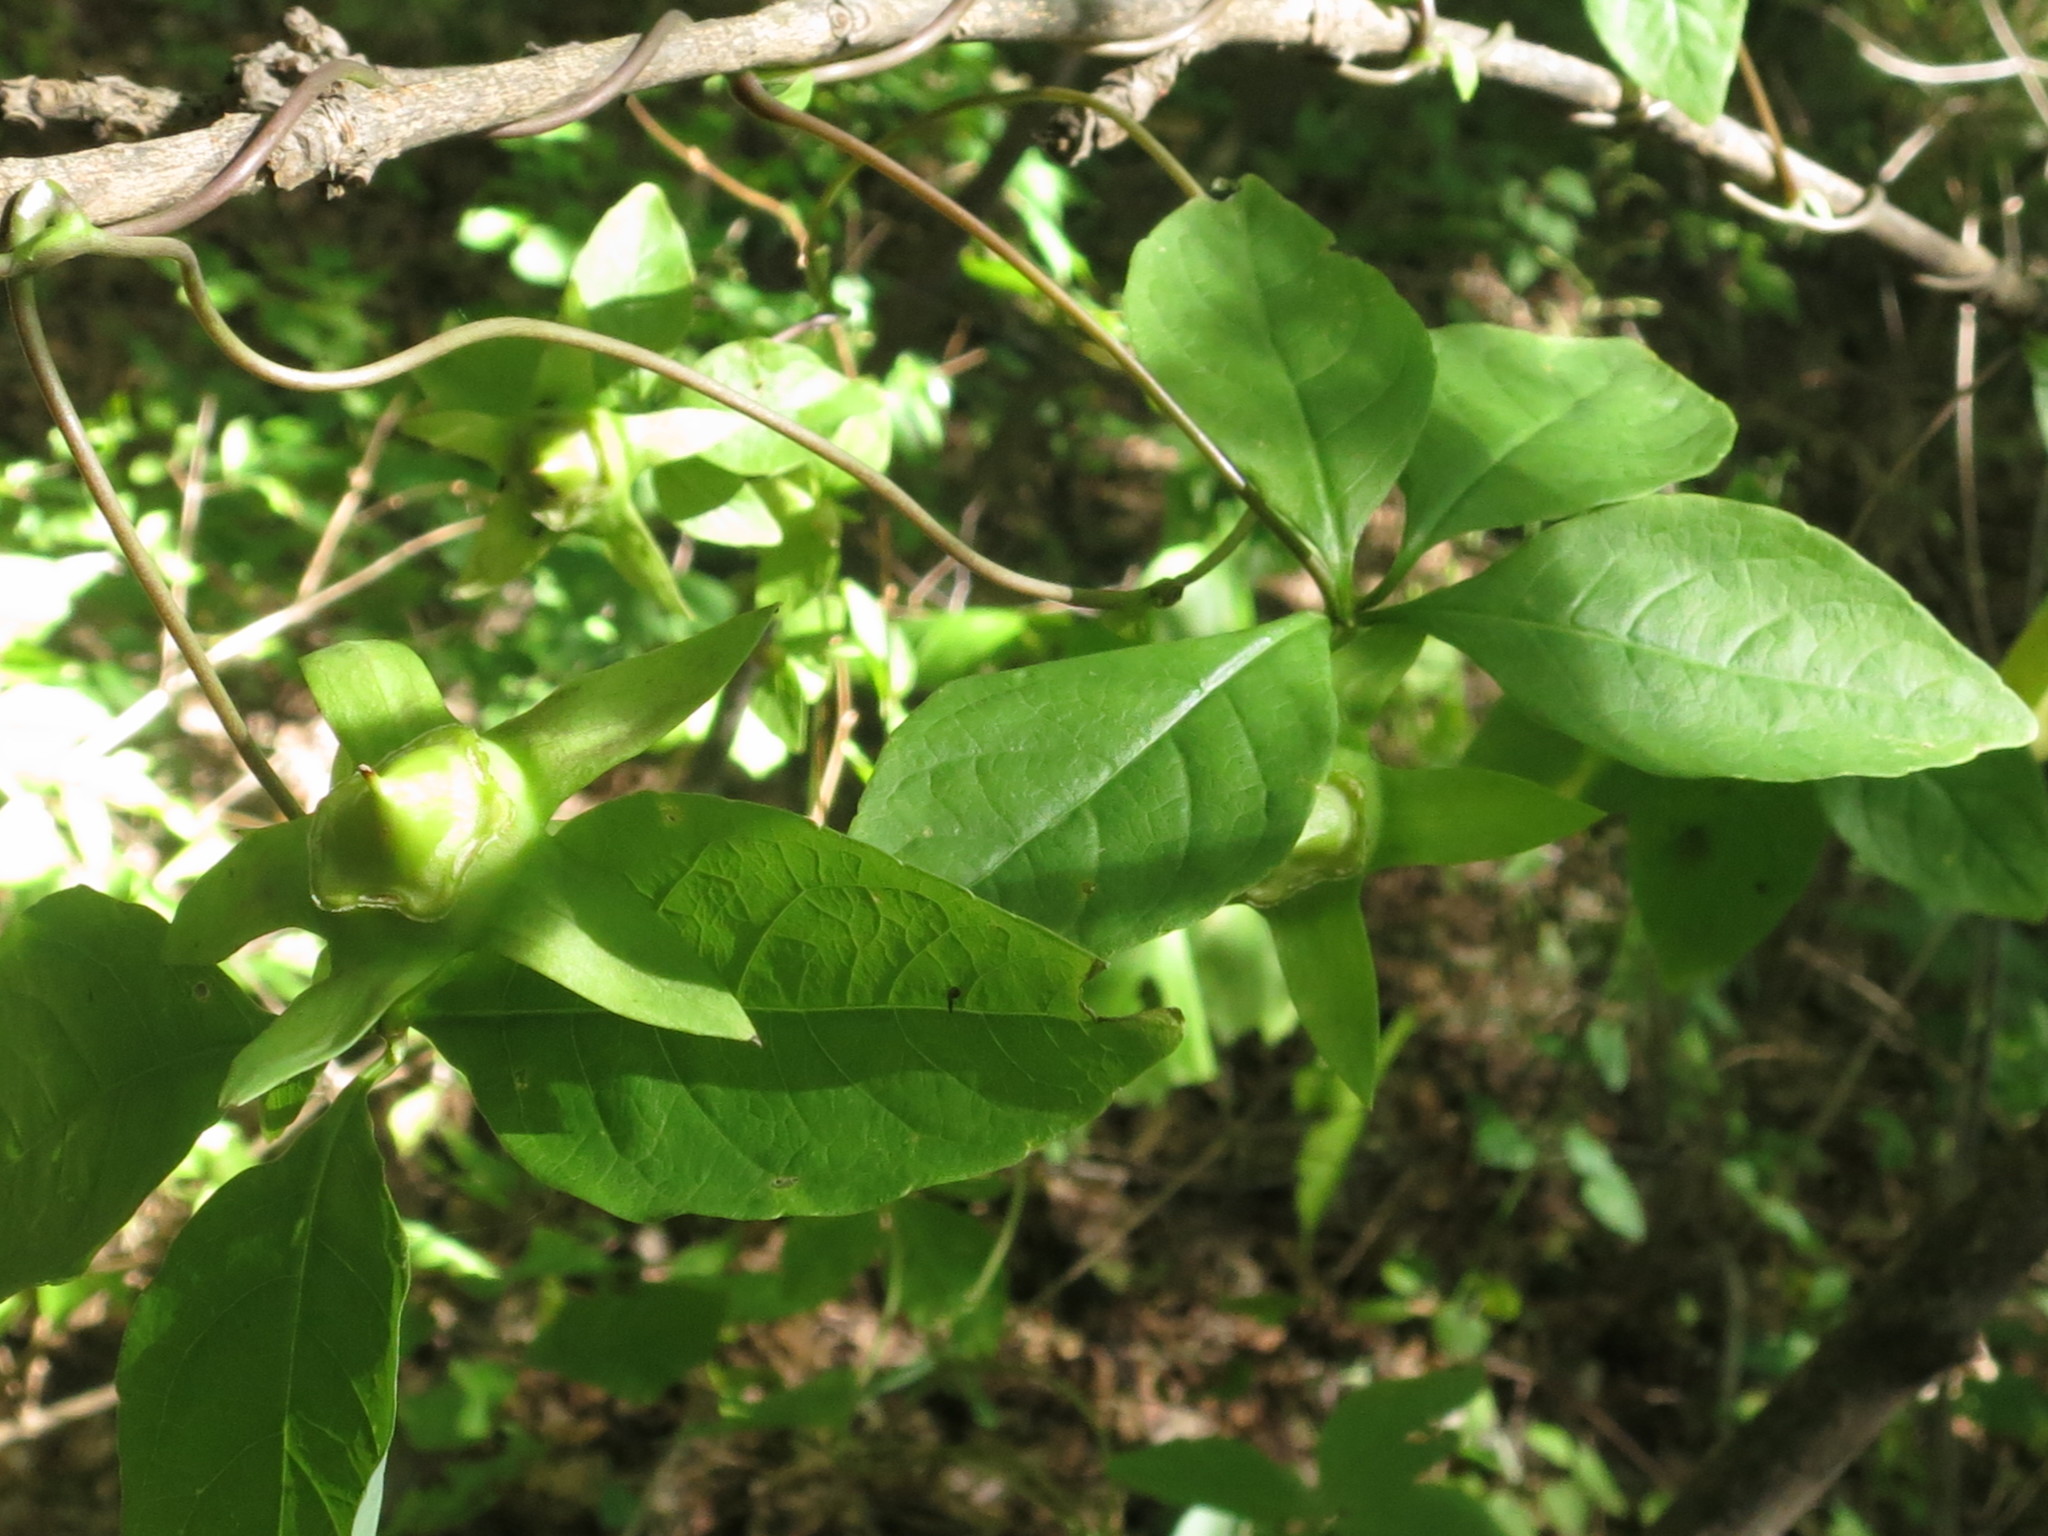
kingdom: Plantae
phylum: Tracheophyta
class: Magnoliopsida
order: Asterales
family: Campanulaceae
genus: Codonopsis
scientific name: Codonopsis lanceolata
